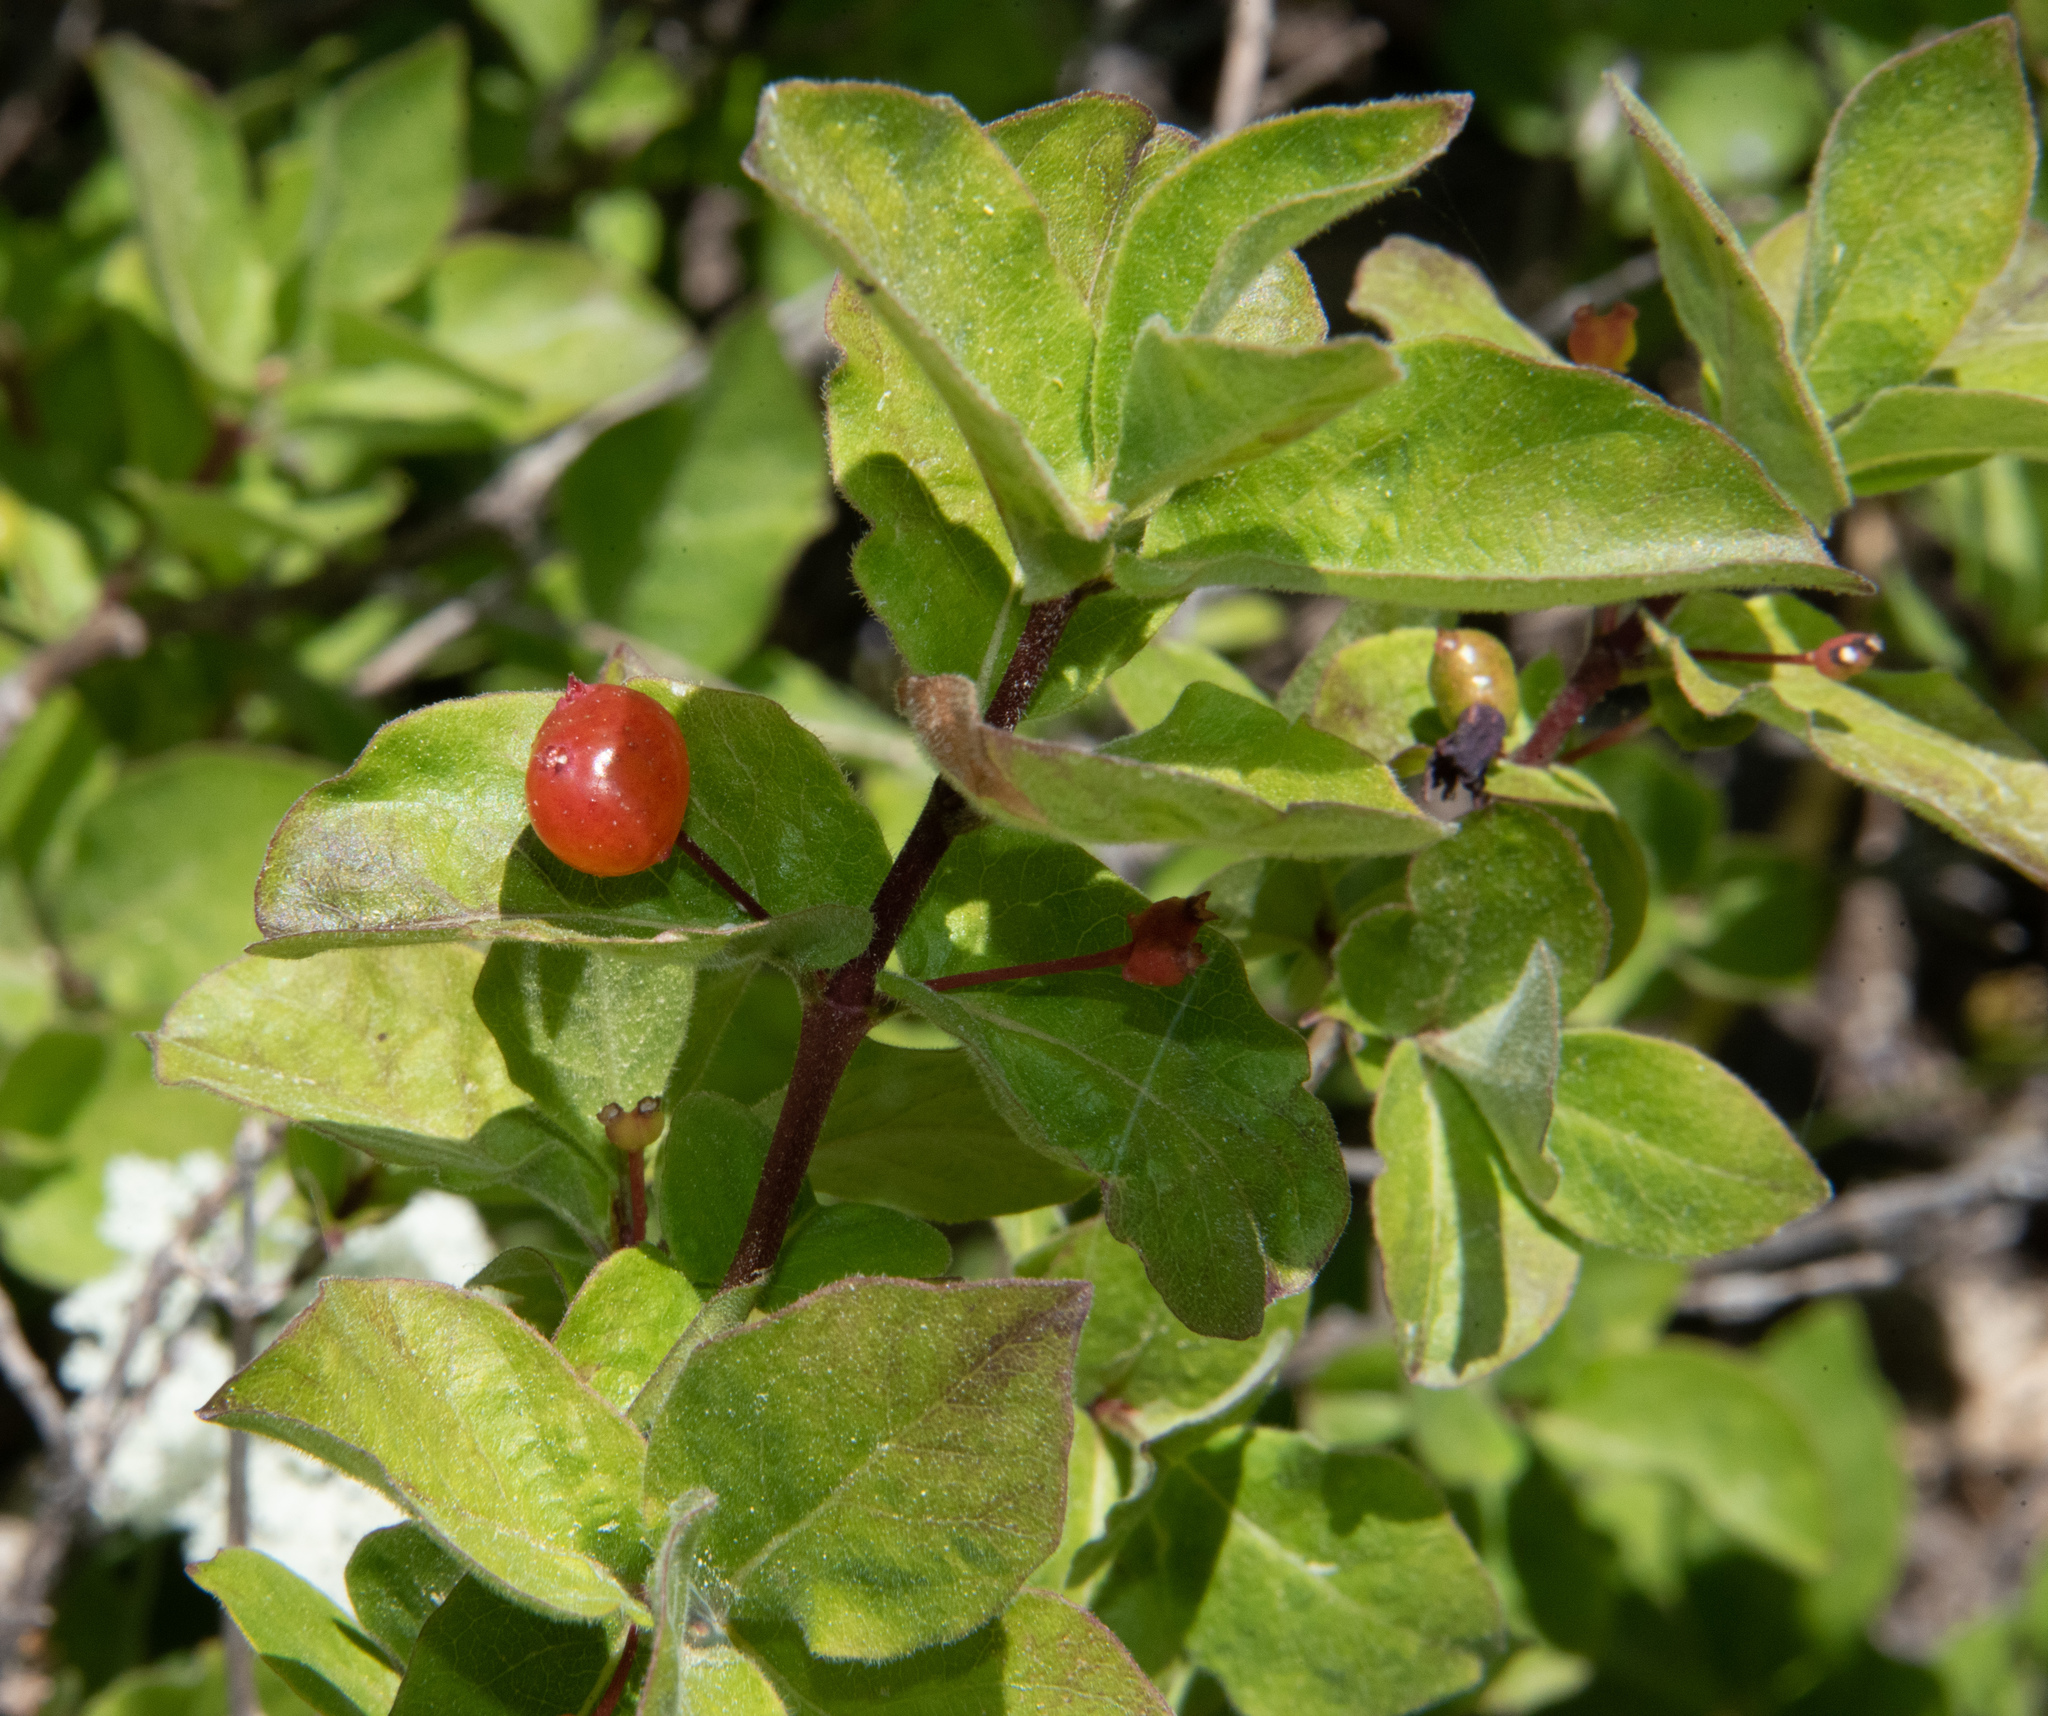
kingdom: Plantae
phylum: Tracheophyta
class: Magnoliopsida
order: Dipsacales
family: Caprifoliaceae
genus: Lonicera
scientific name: Lonicera conjugialis
